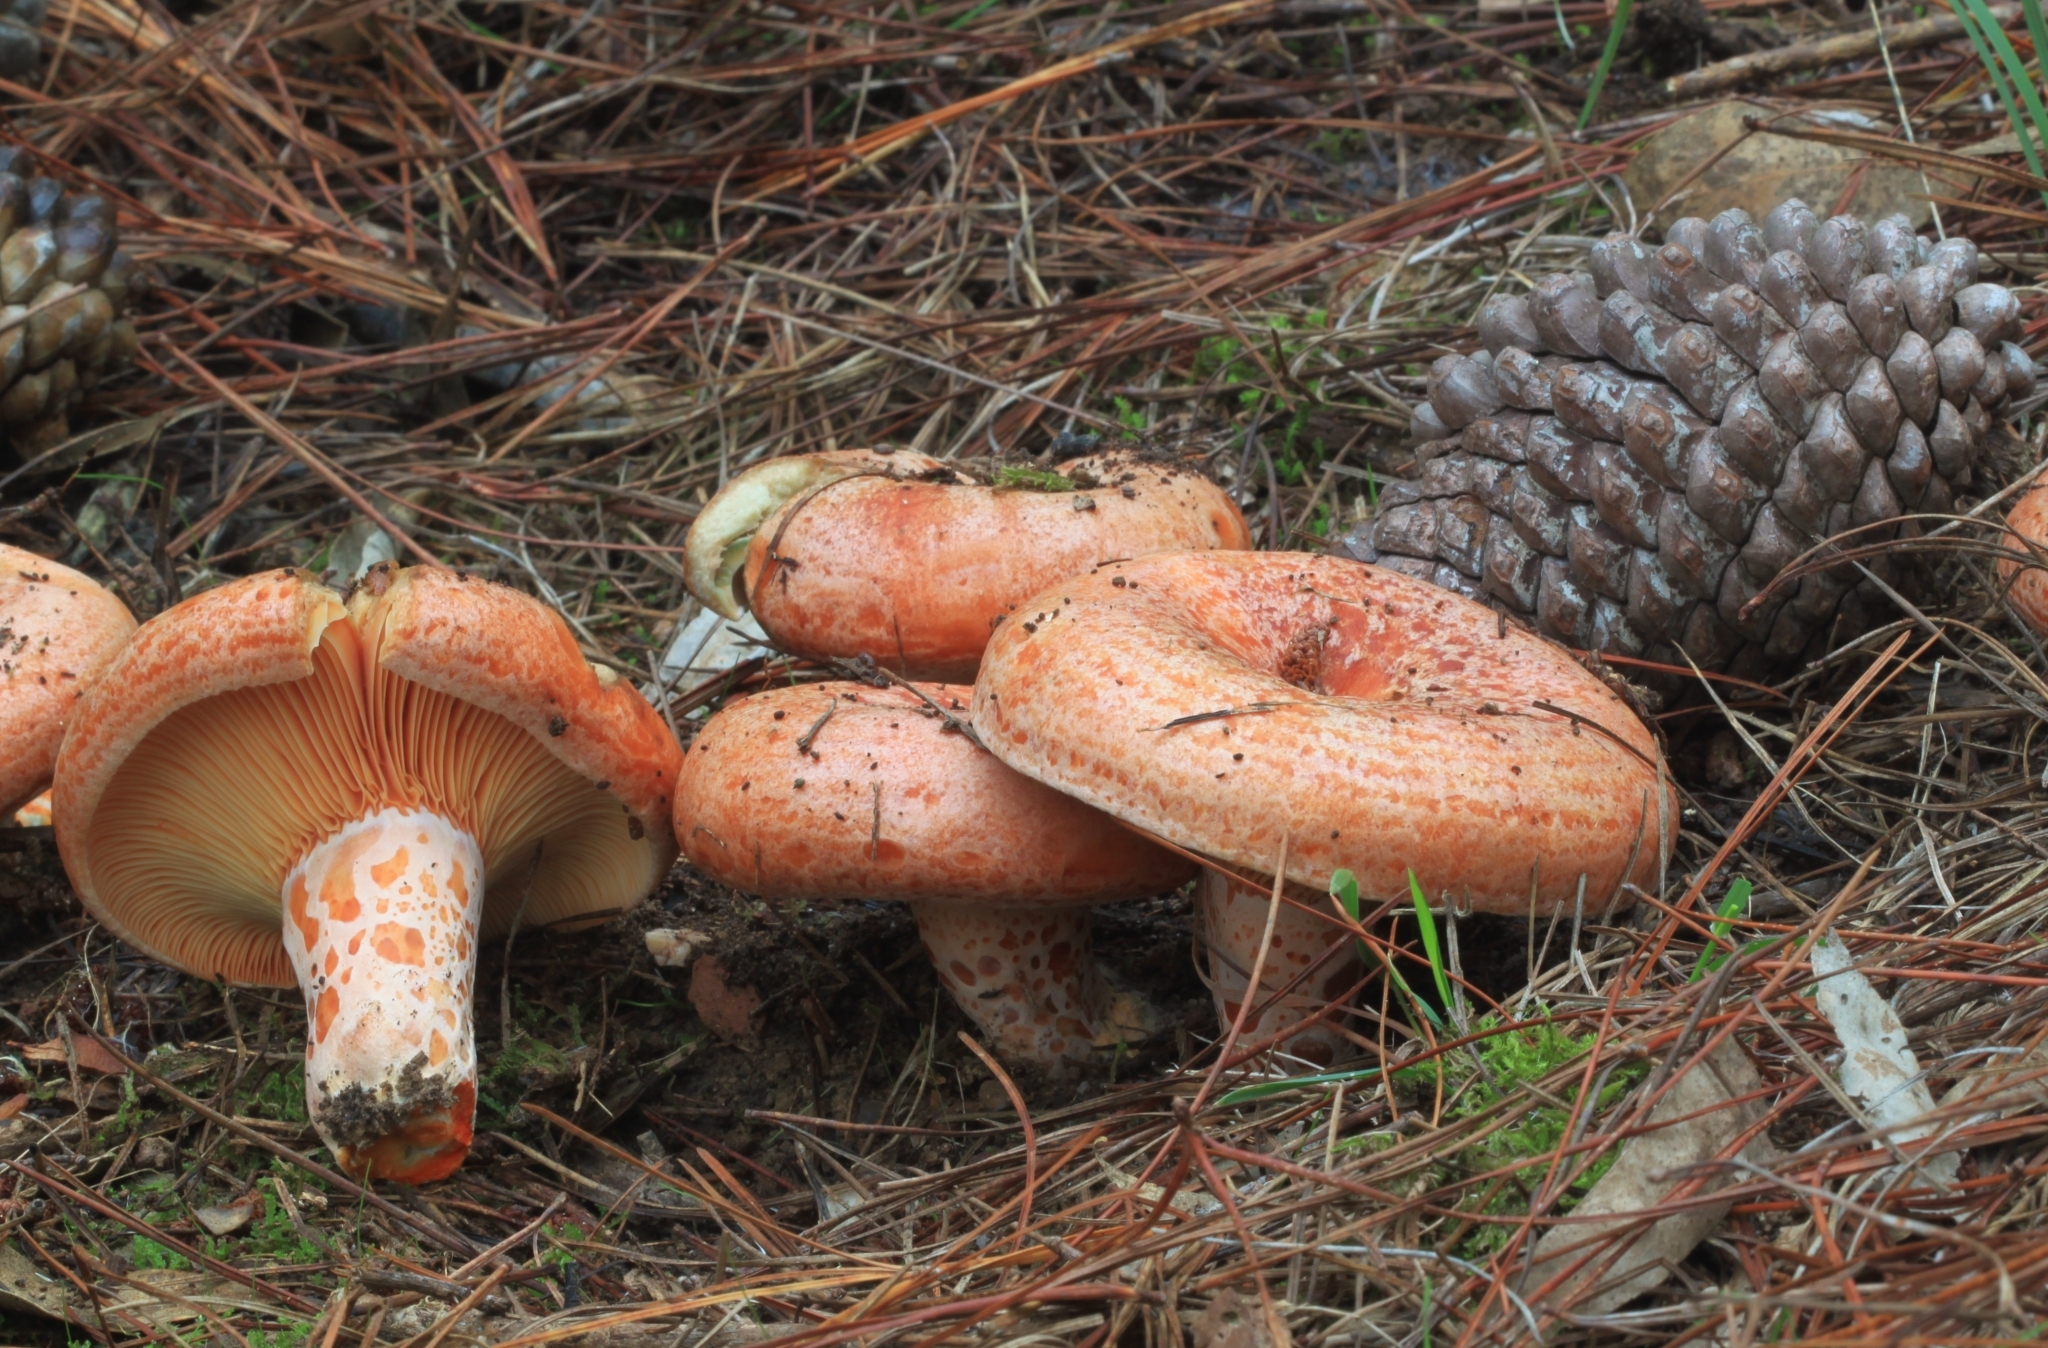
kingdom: Fungi
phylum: Basidiomycota
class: Agaricomycetes
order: Russulales
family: Russulaceae
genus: Lactarius
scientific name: Lactarius deliciosus
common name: Saffron milk-cap
